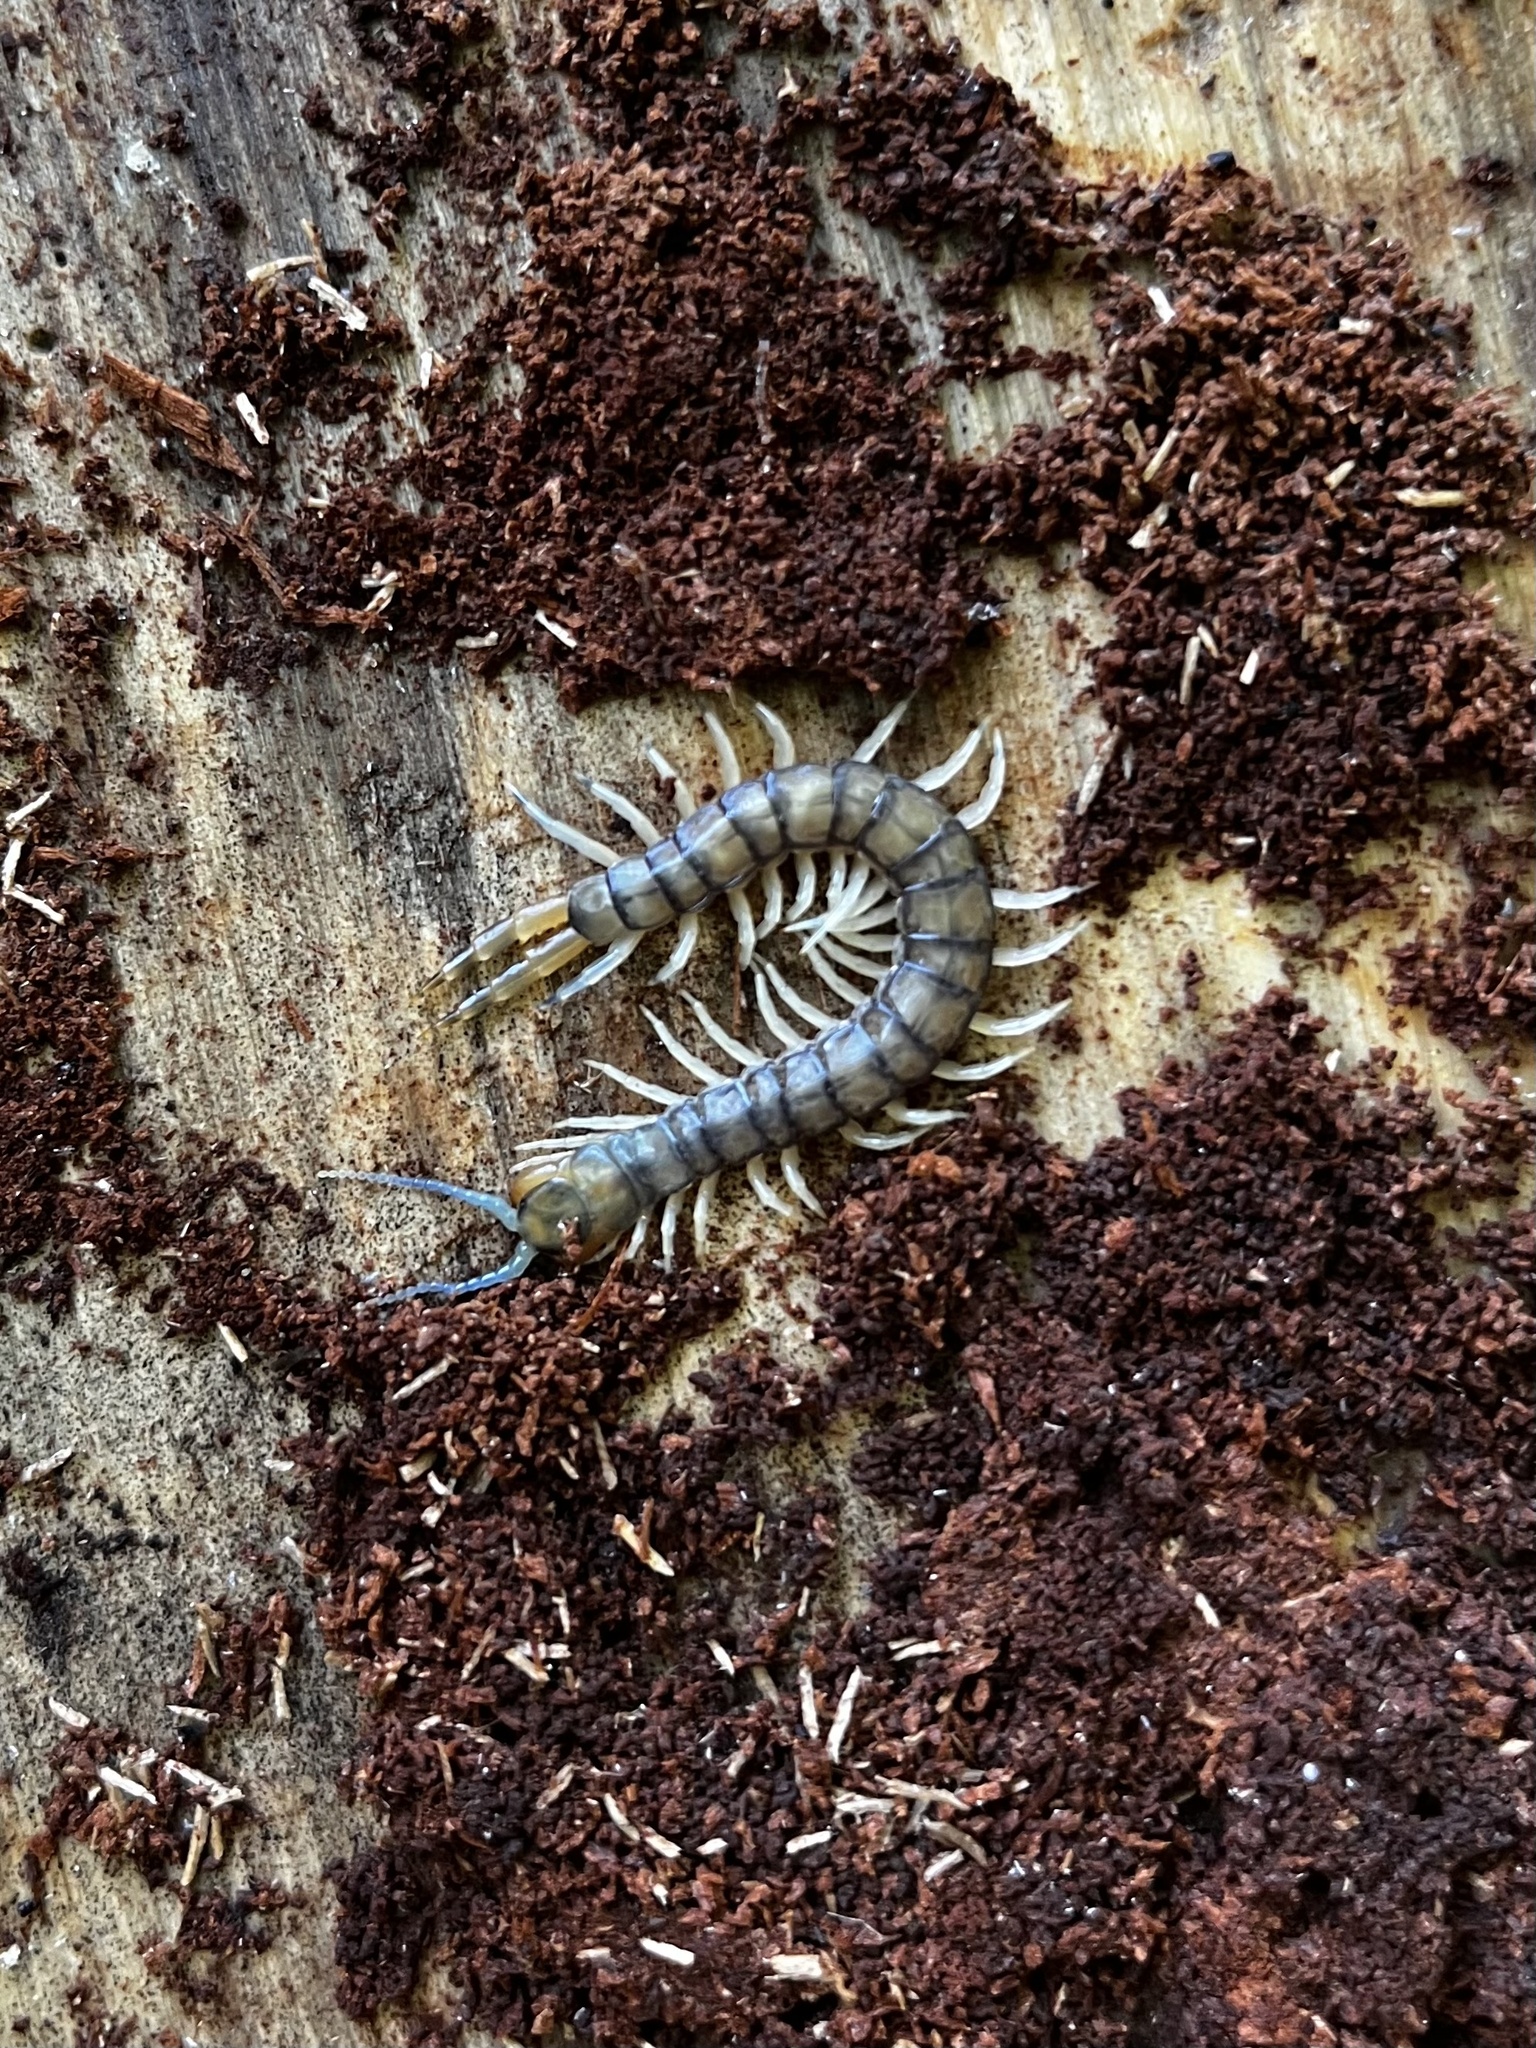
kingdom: Animalia
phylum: Arthropoda
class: Chilopoda
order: Scolopendromorpha
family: Scolopendridae
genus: Hemiscolopendra
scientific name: Hemiscolopendra marginata
